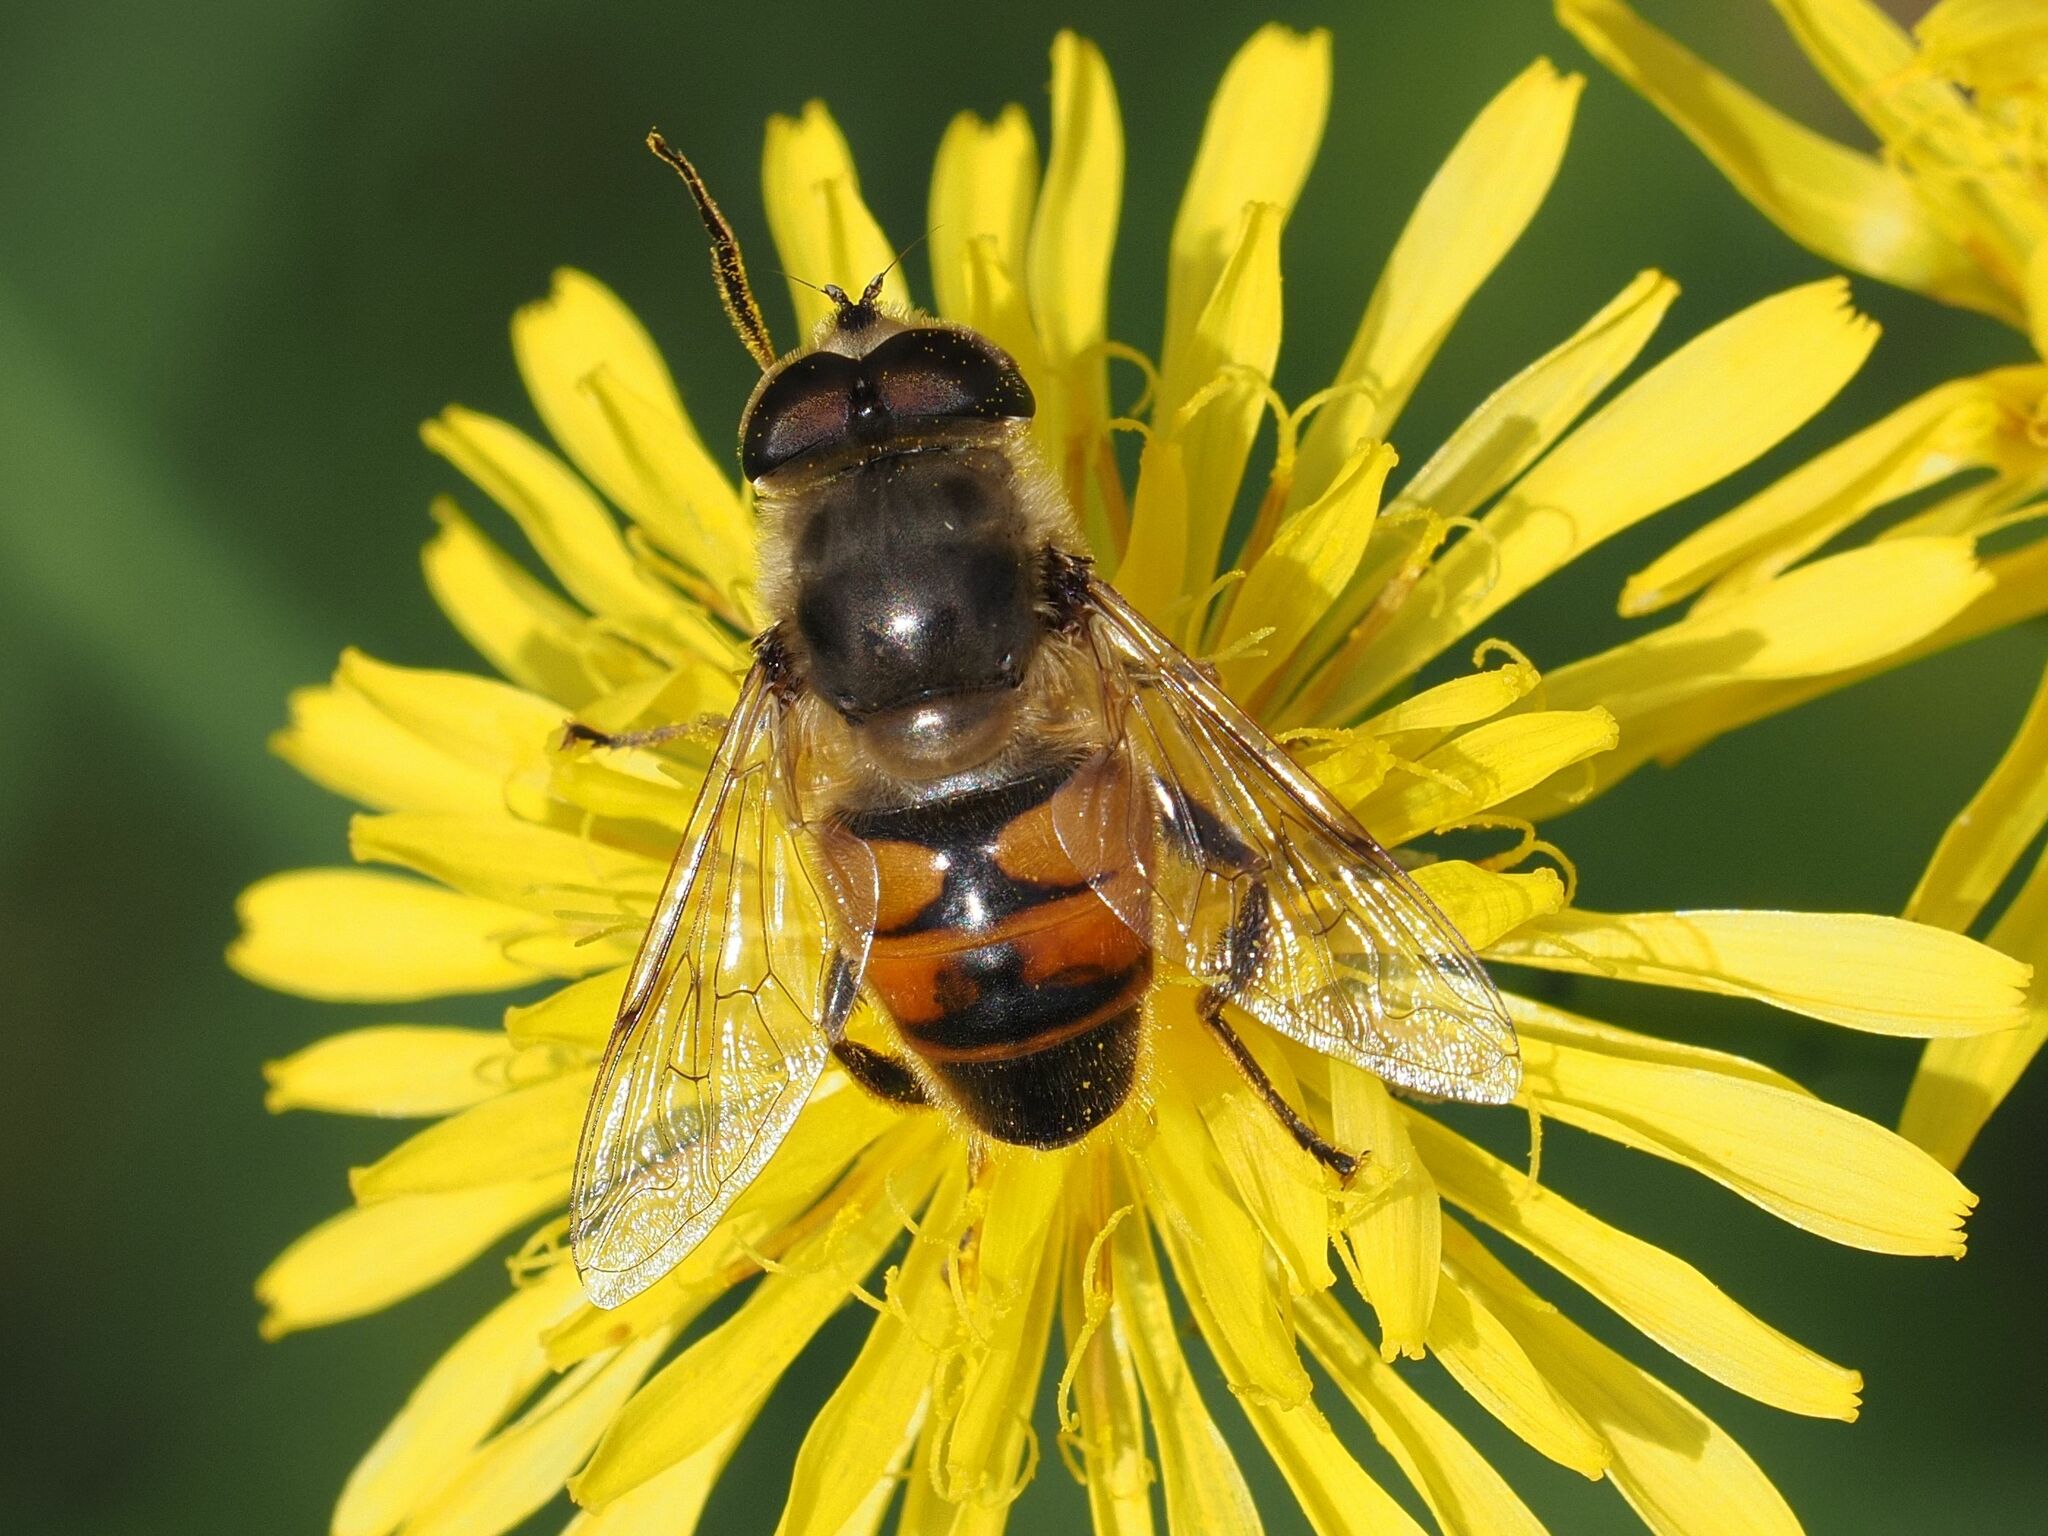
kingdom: Animalia
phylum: Arthropoda
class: Insecta
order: Diptera
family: Syrphidae
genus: Eristalis
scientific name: Eristalis tenax
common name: Drone fly
